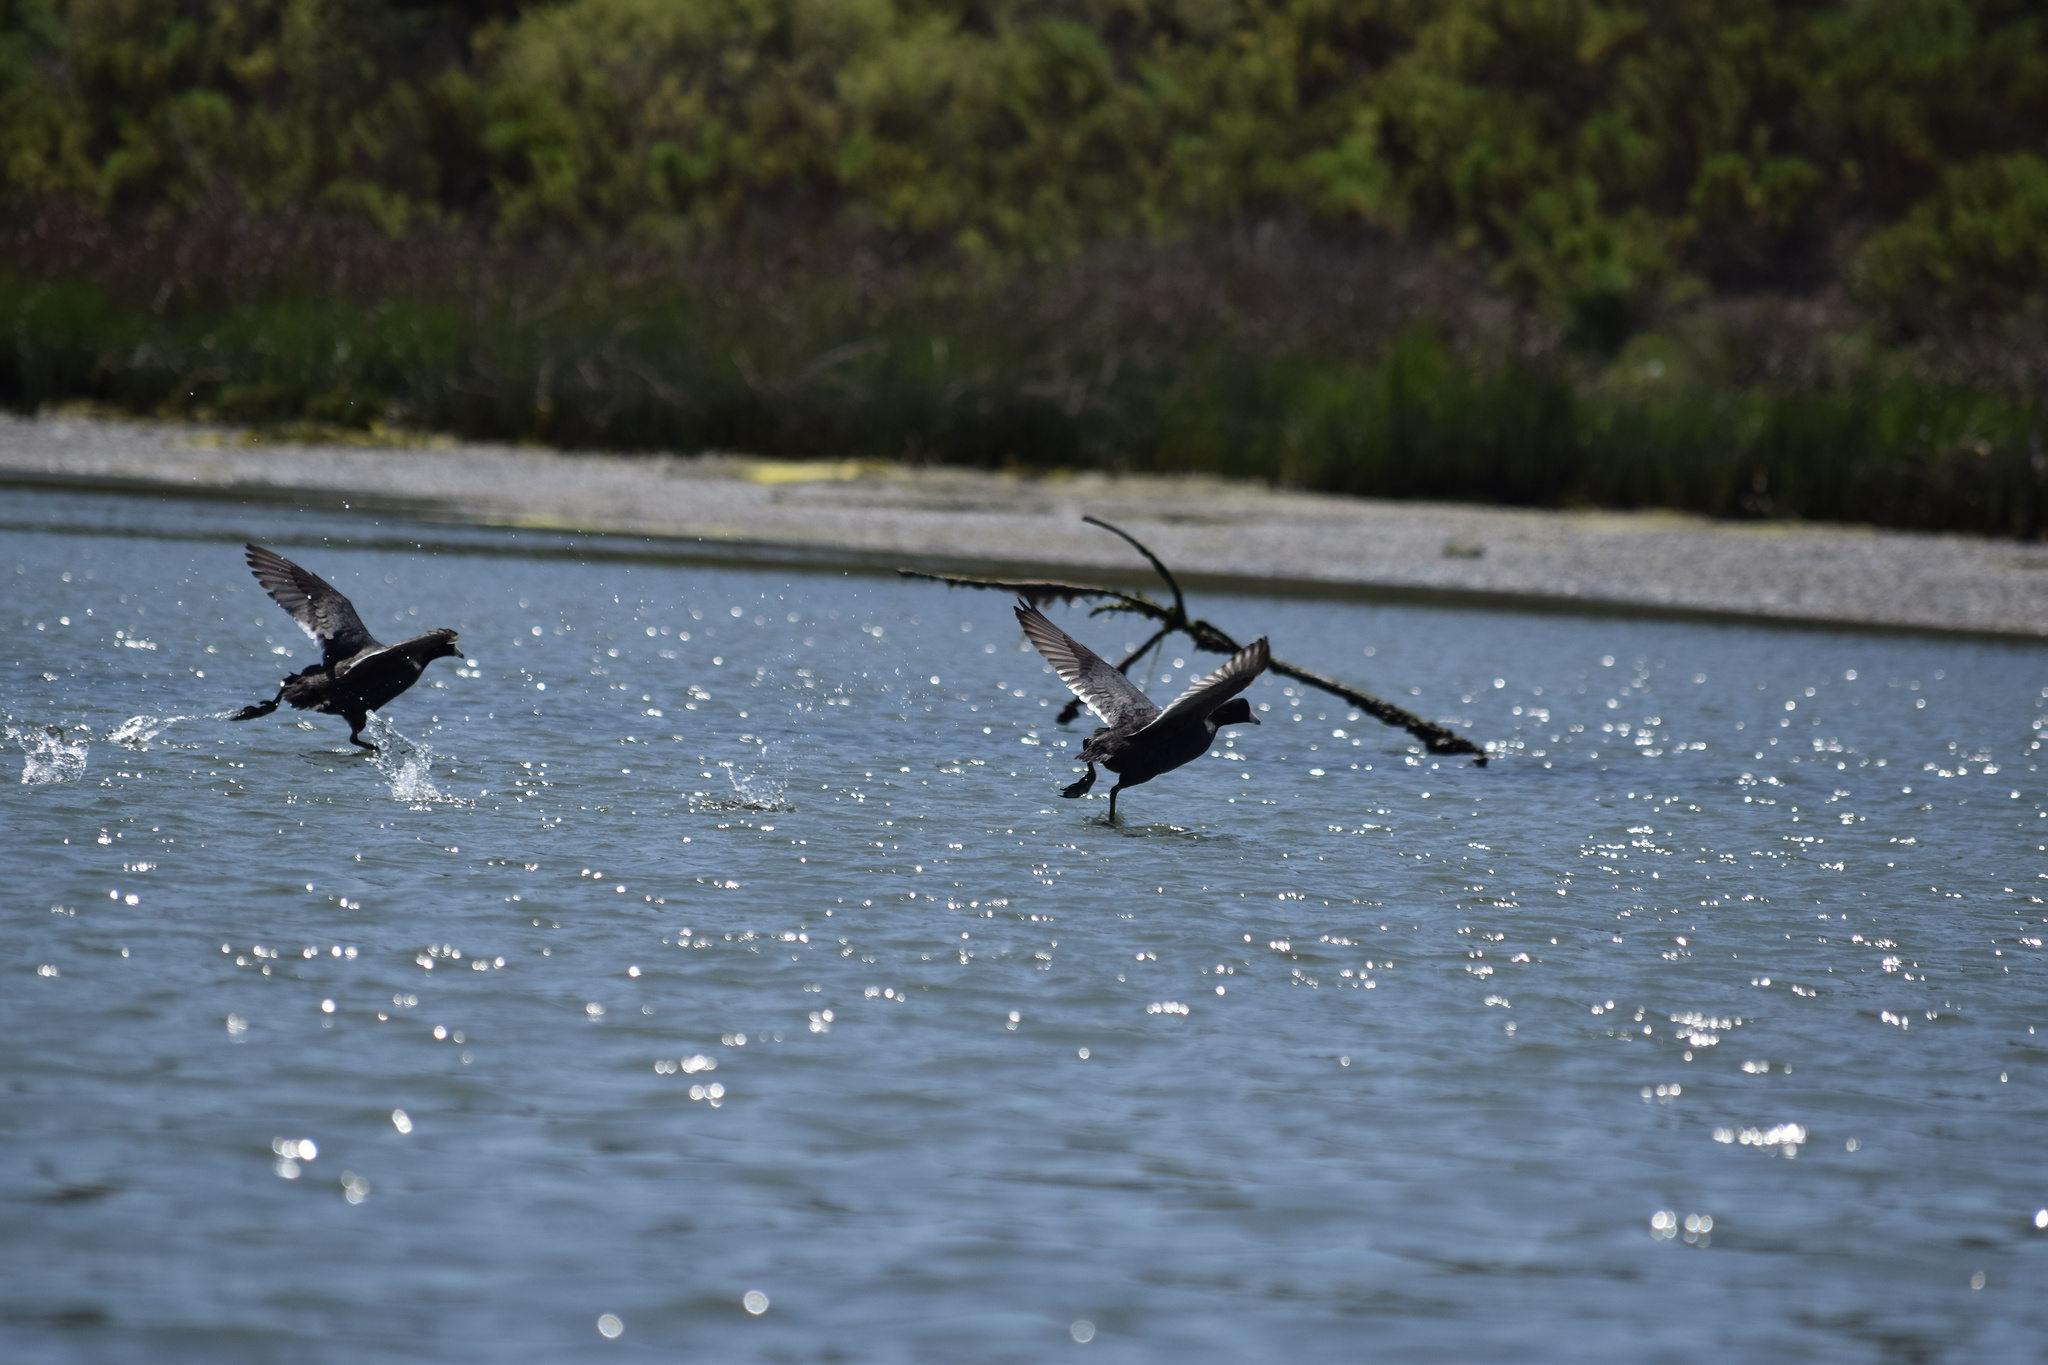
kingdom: Animalia
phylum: Chordata
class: Aves
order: Gruiformes
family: Rallidae
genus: Fulica
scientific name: Fulica americana
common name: American coot
